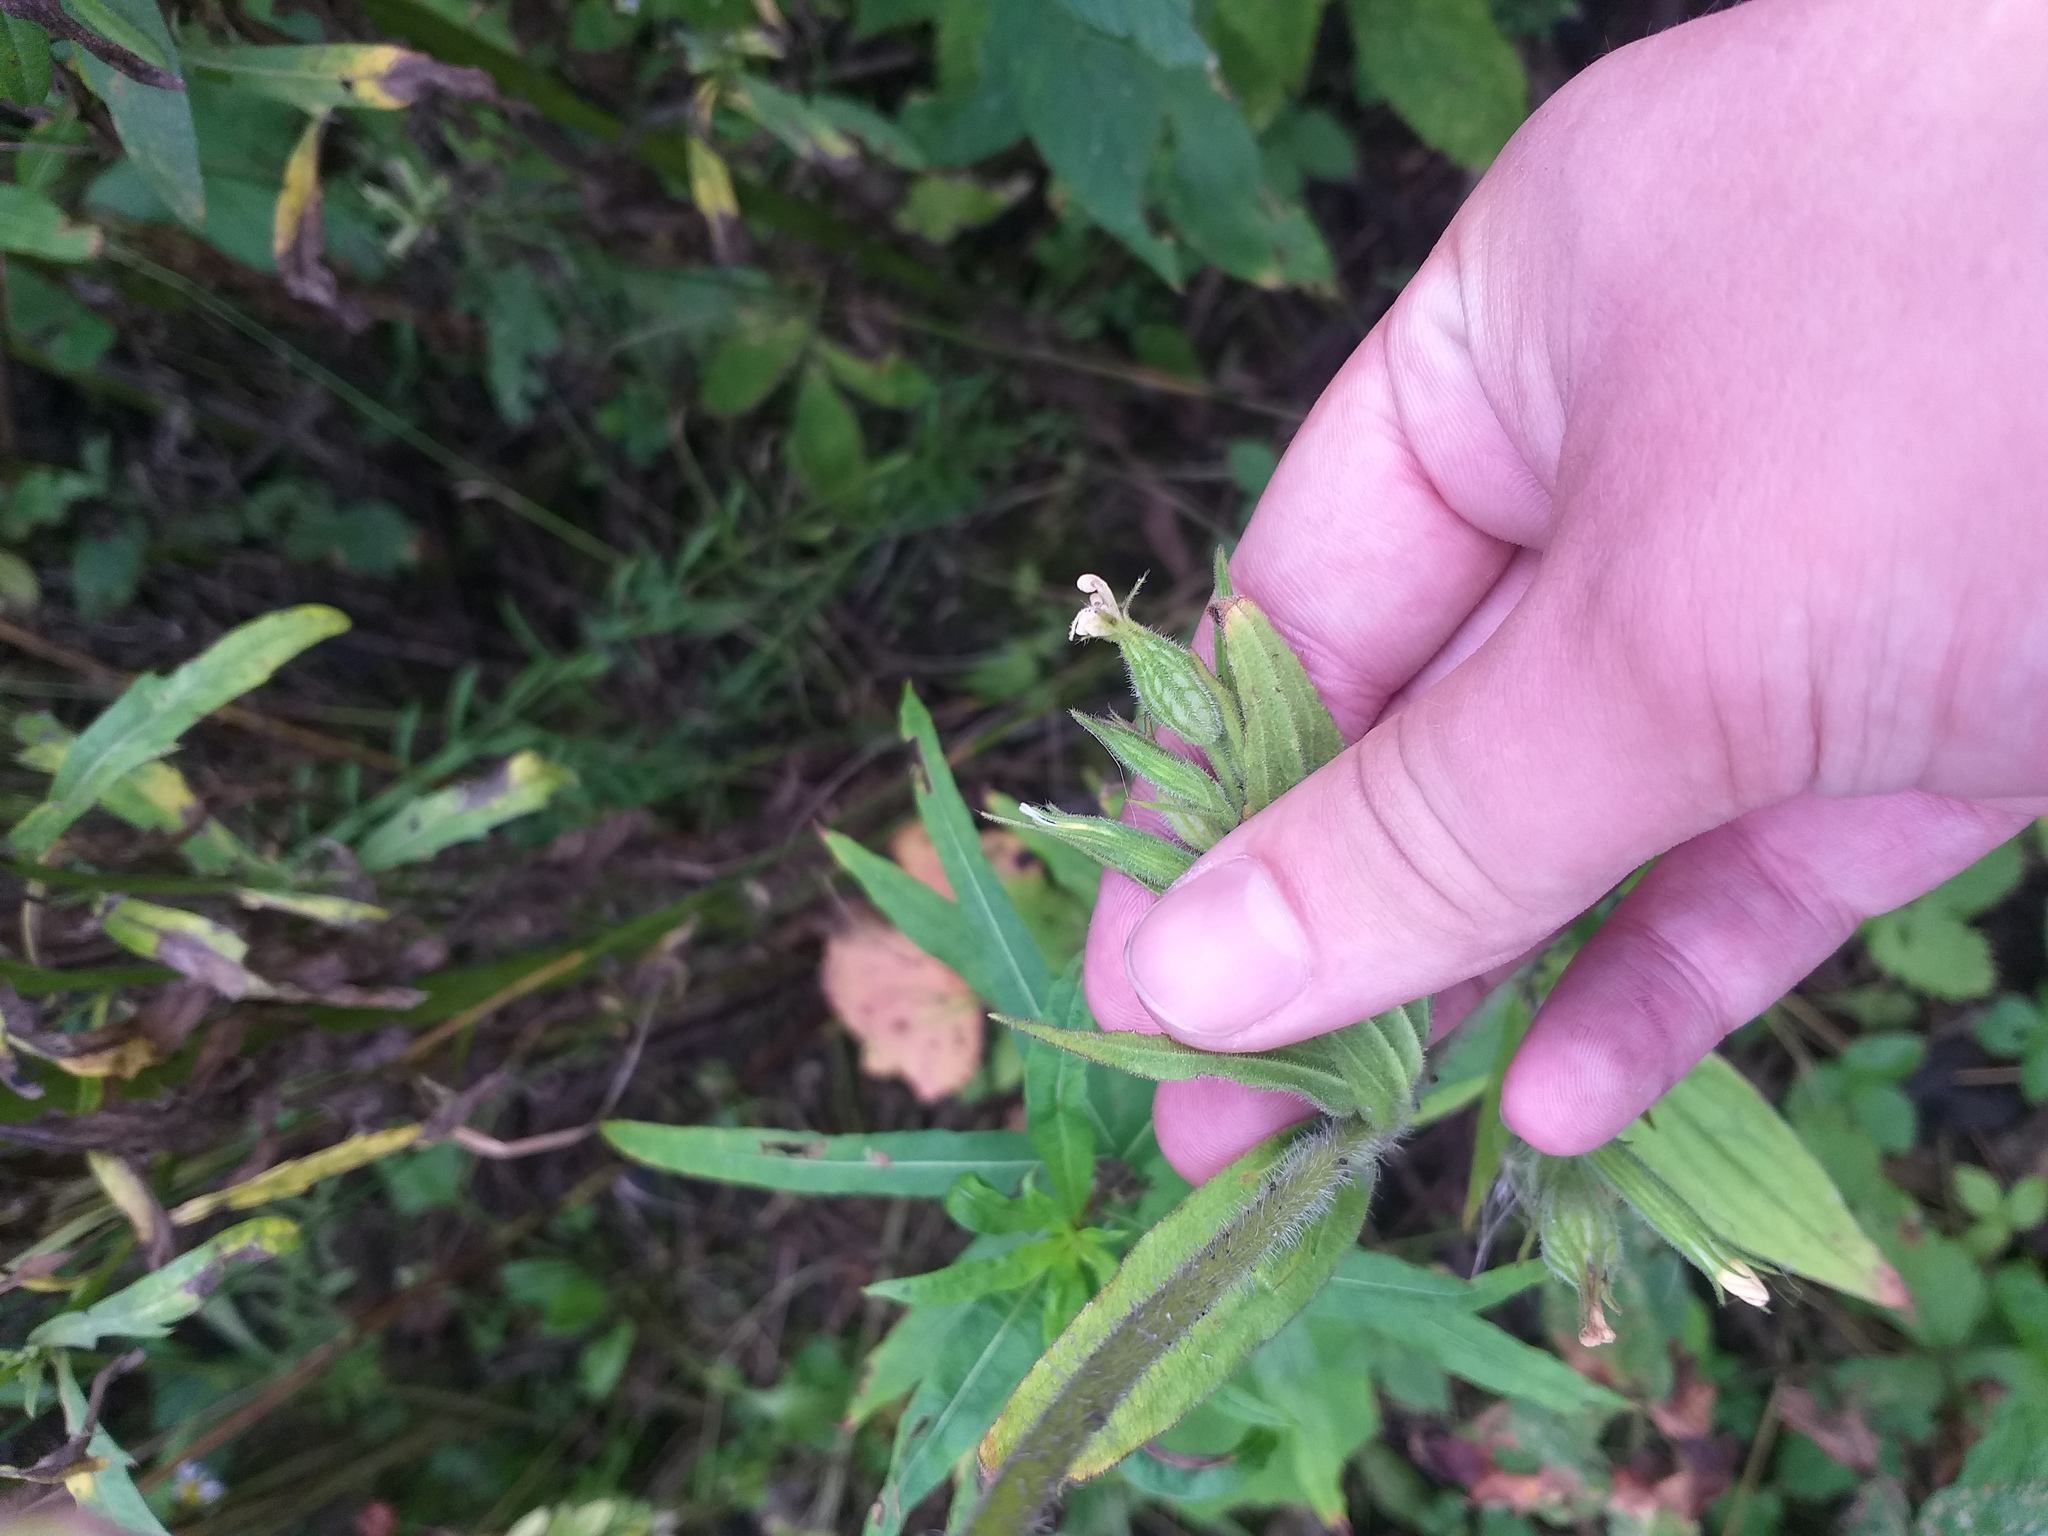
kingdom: Plantae
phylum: Tracheophyta
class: Magnoliopsida
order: Caryophyllales
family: Caryophyllaceae
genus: Silene
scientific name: Silene noctiflora
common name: Night-flowering catchfly
